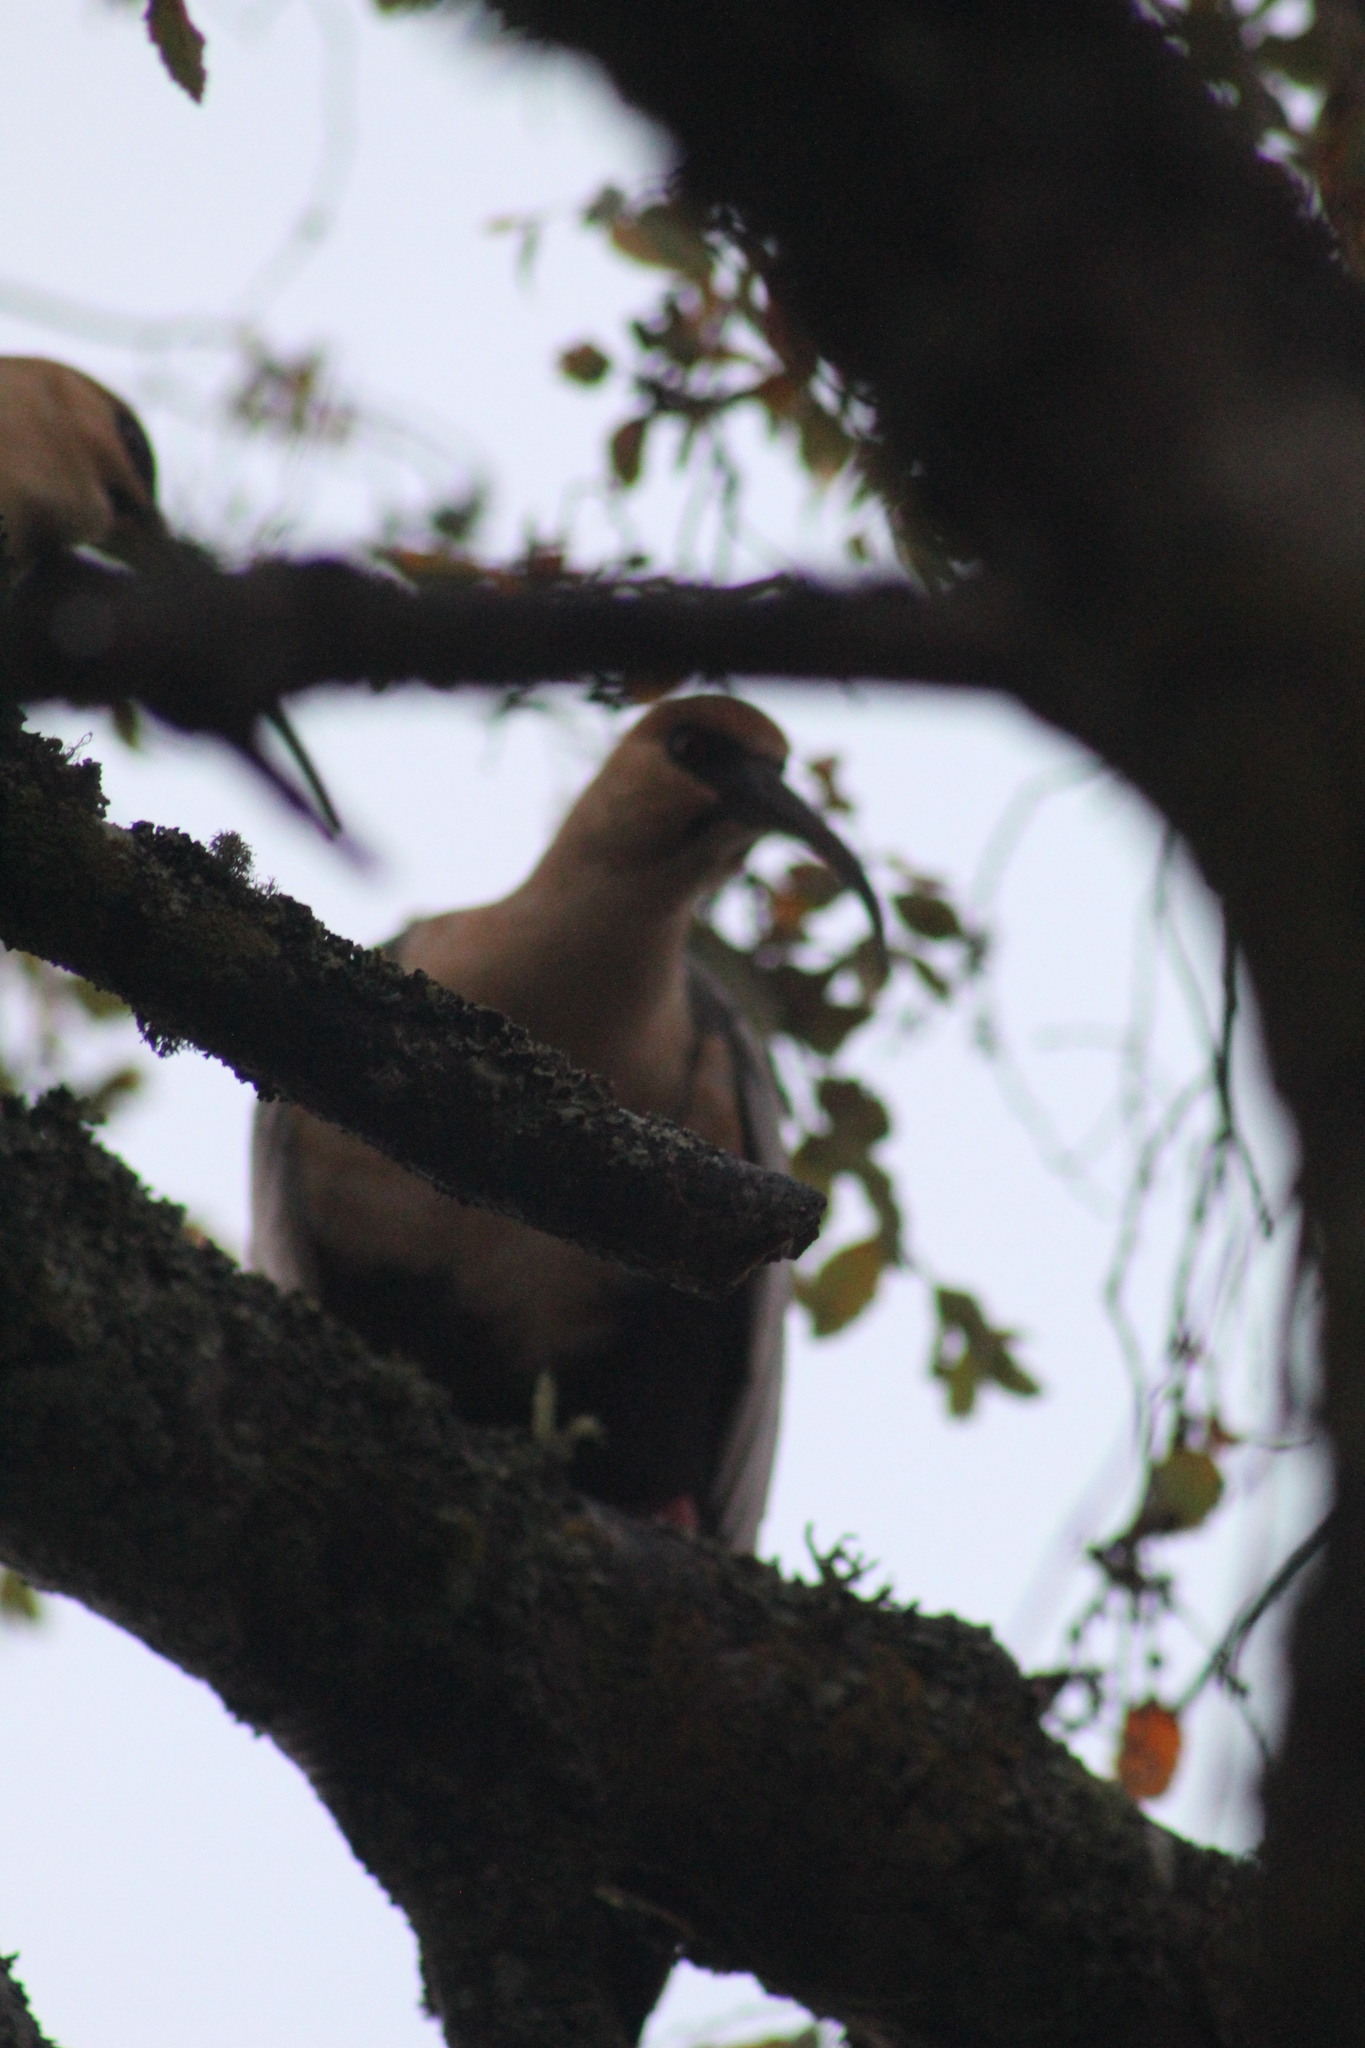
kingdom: Animalia
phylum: Chordata
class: Aves
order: Pelecaniformes
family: Threskiornithidae
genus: Theristicus
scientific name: Theristicus melanopis
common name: Black-faced ibis
